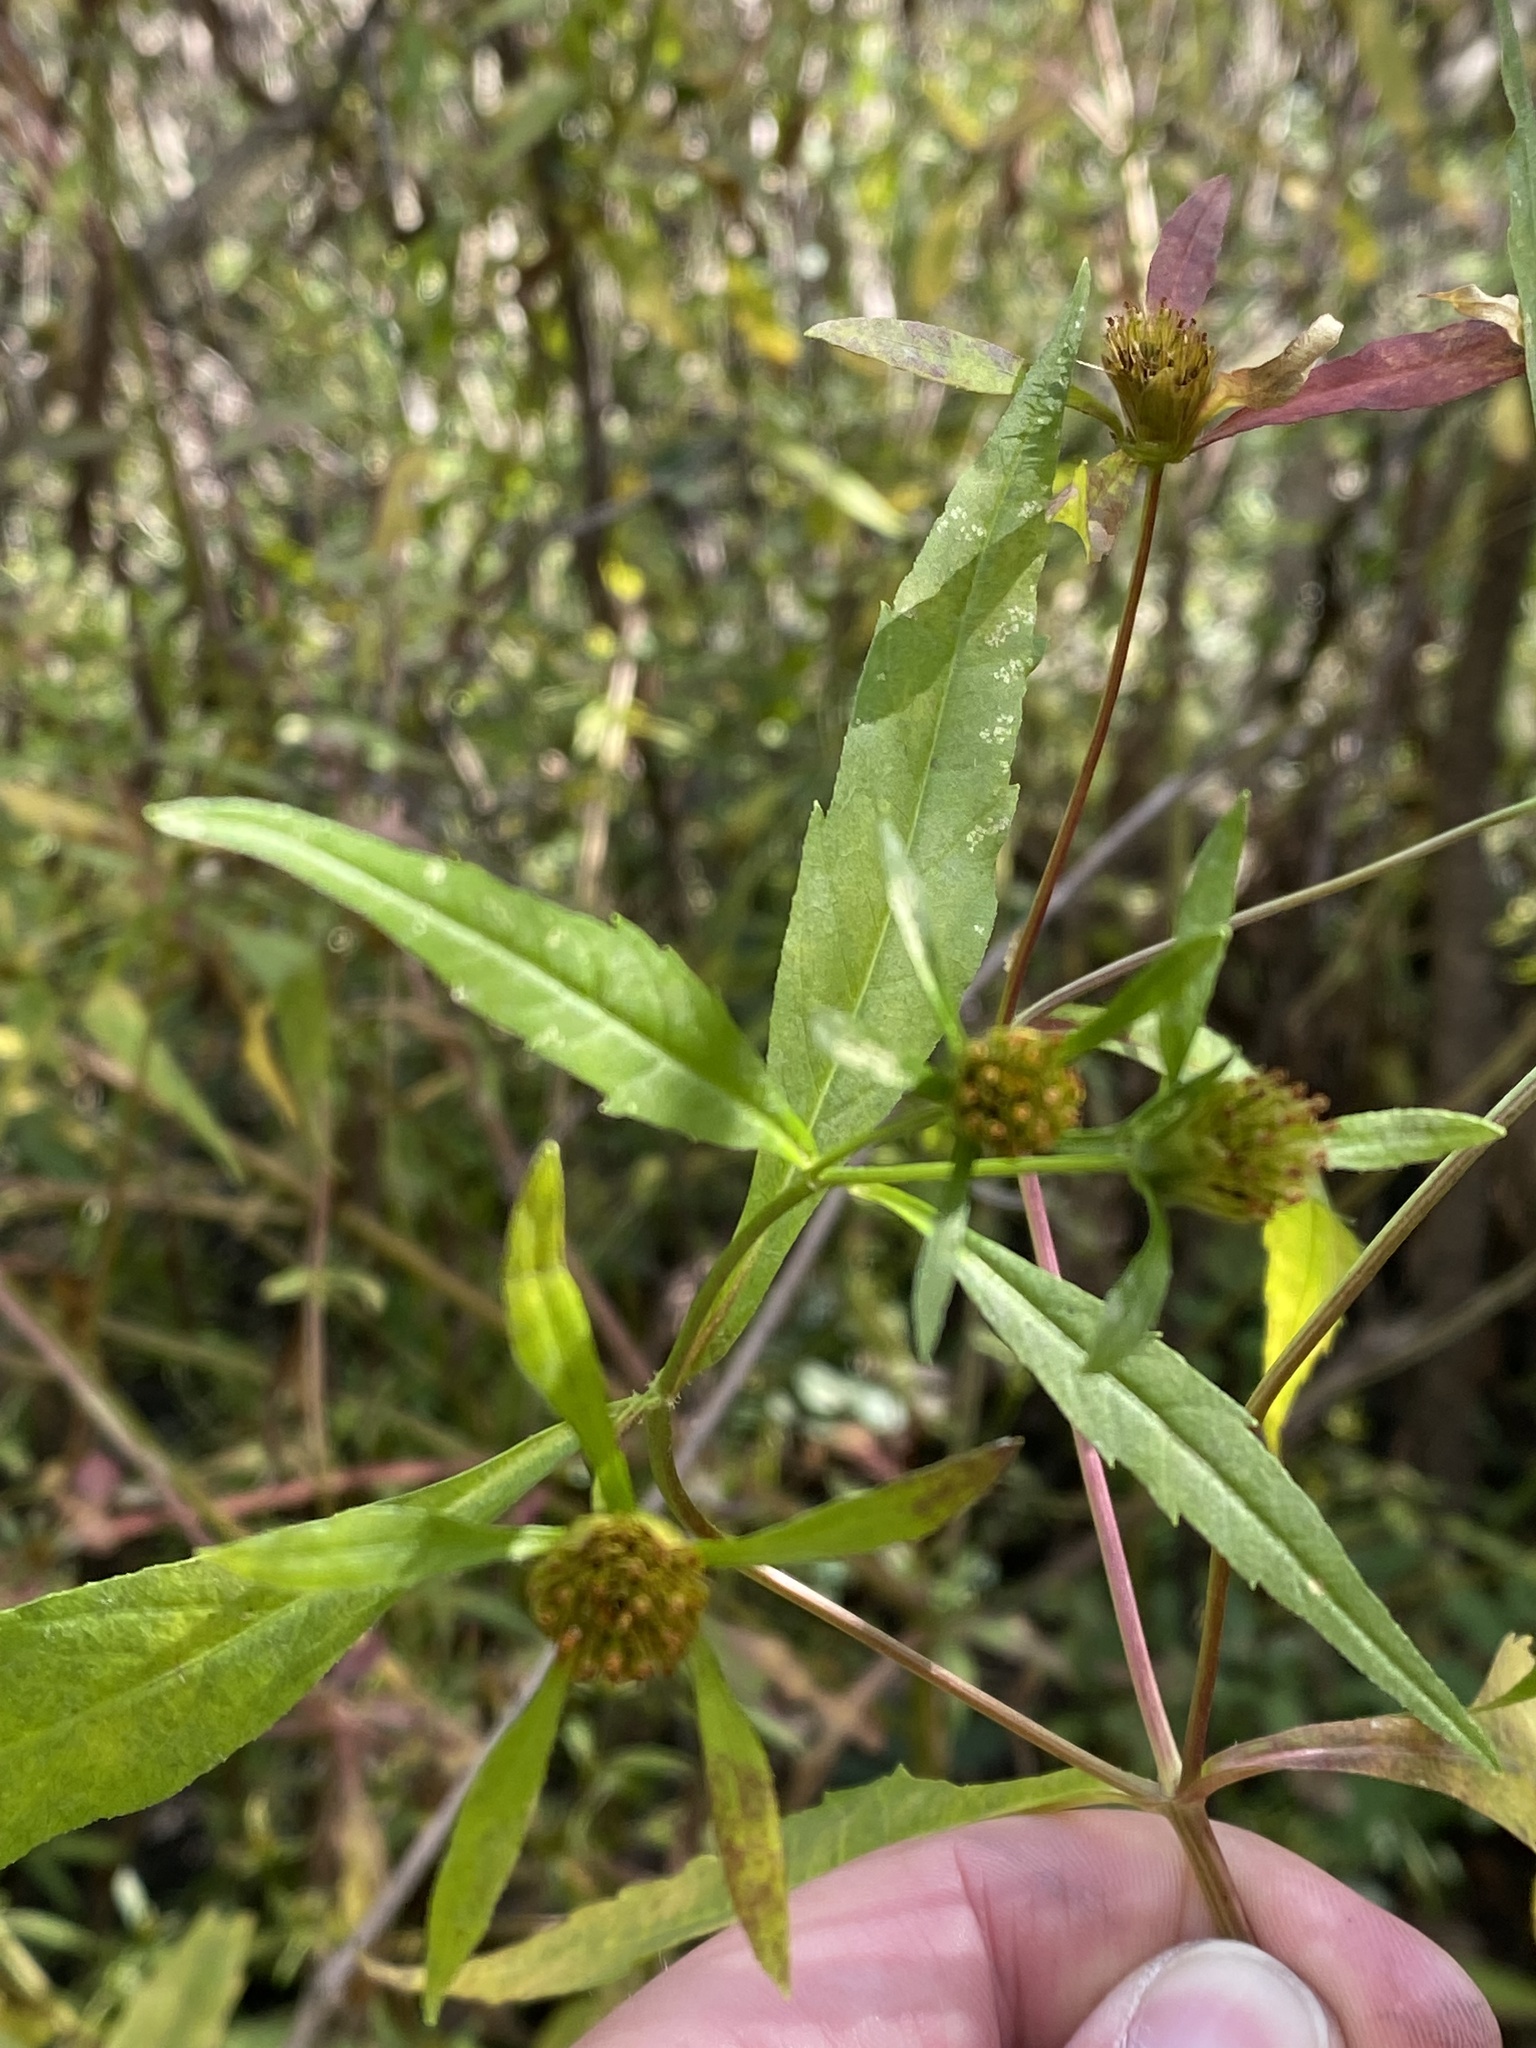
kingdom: Plantae
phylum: Tracheophyta
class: Magnoliopsida
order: Asterales
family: Asteraceae
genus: Bidens
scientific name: Bidens connata
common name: London bur-marigold
